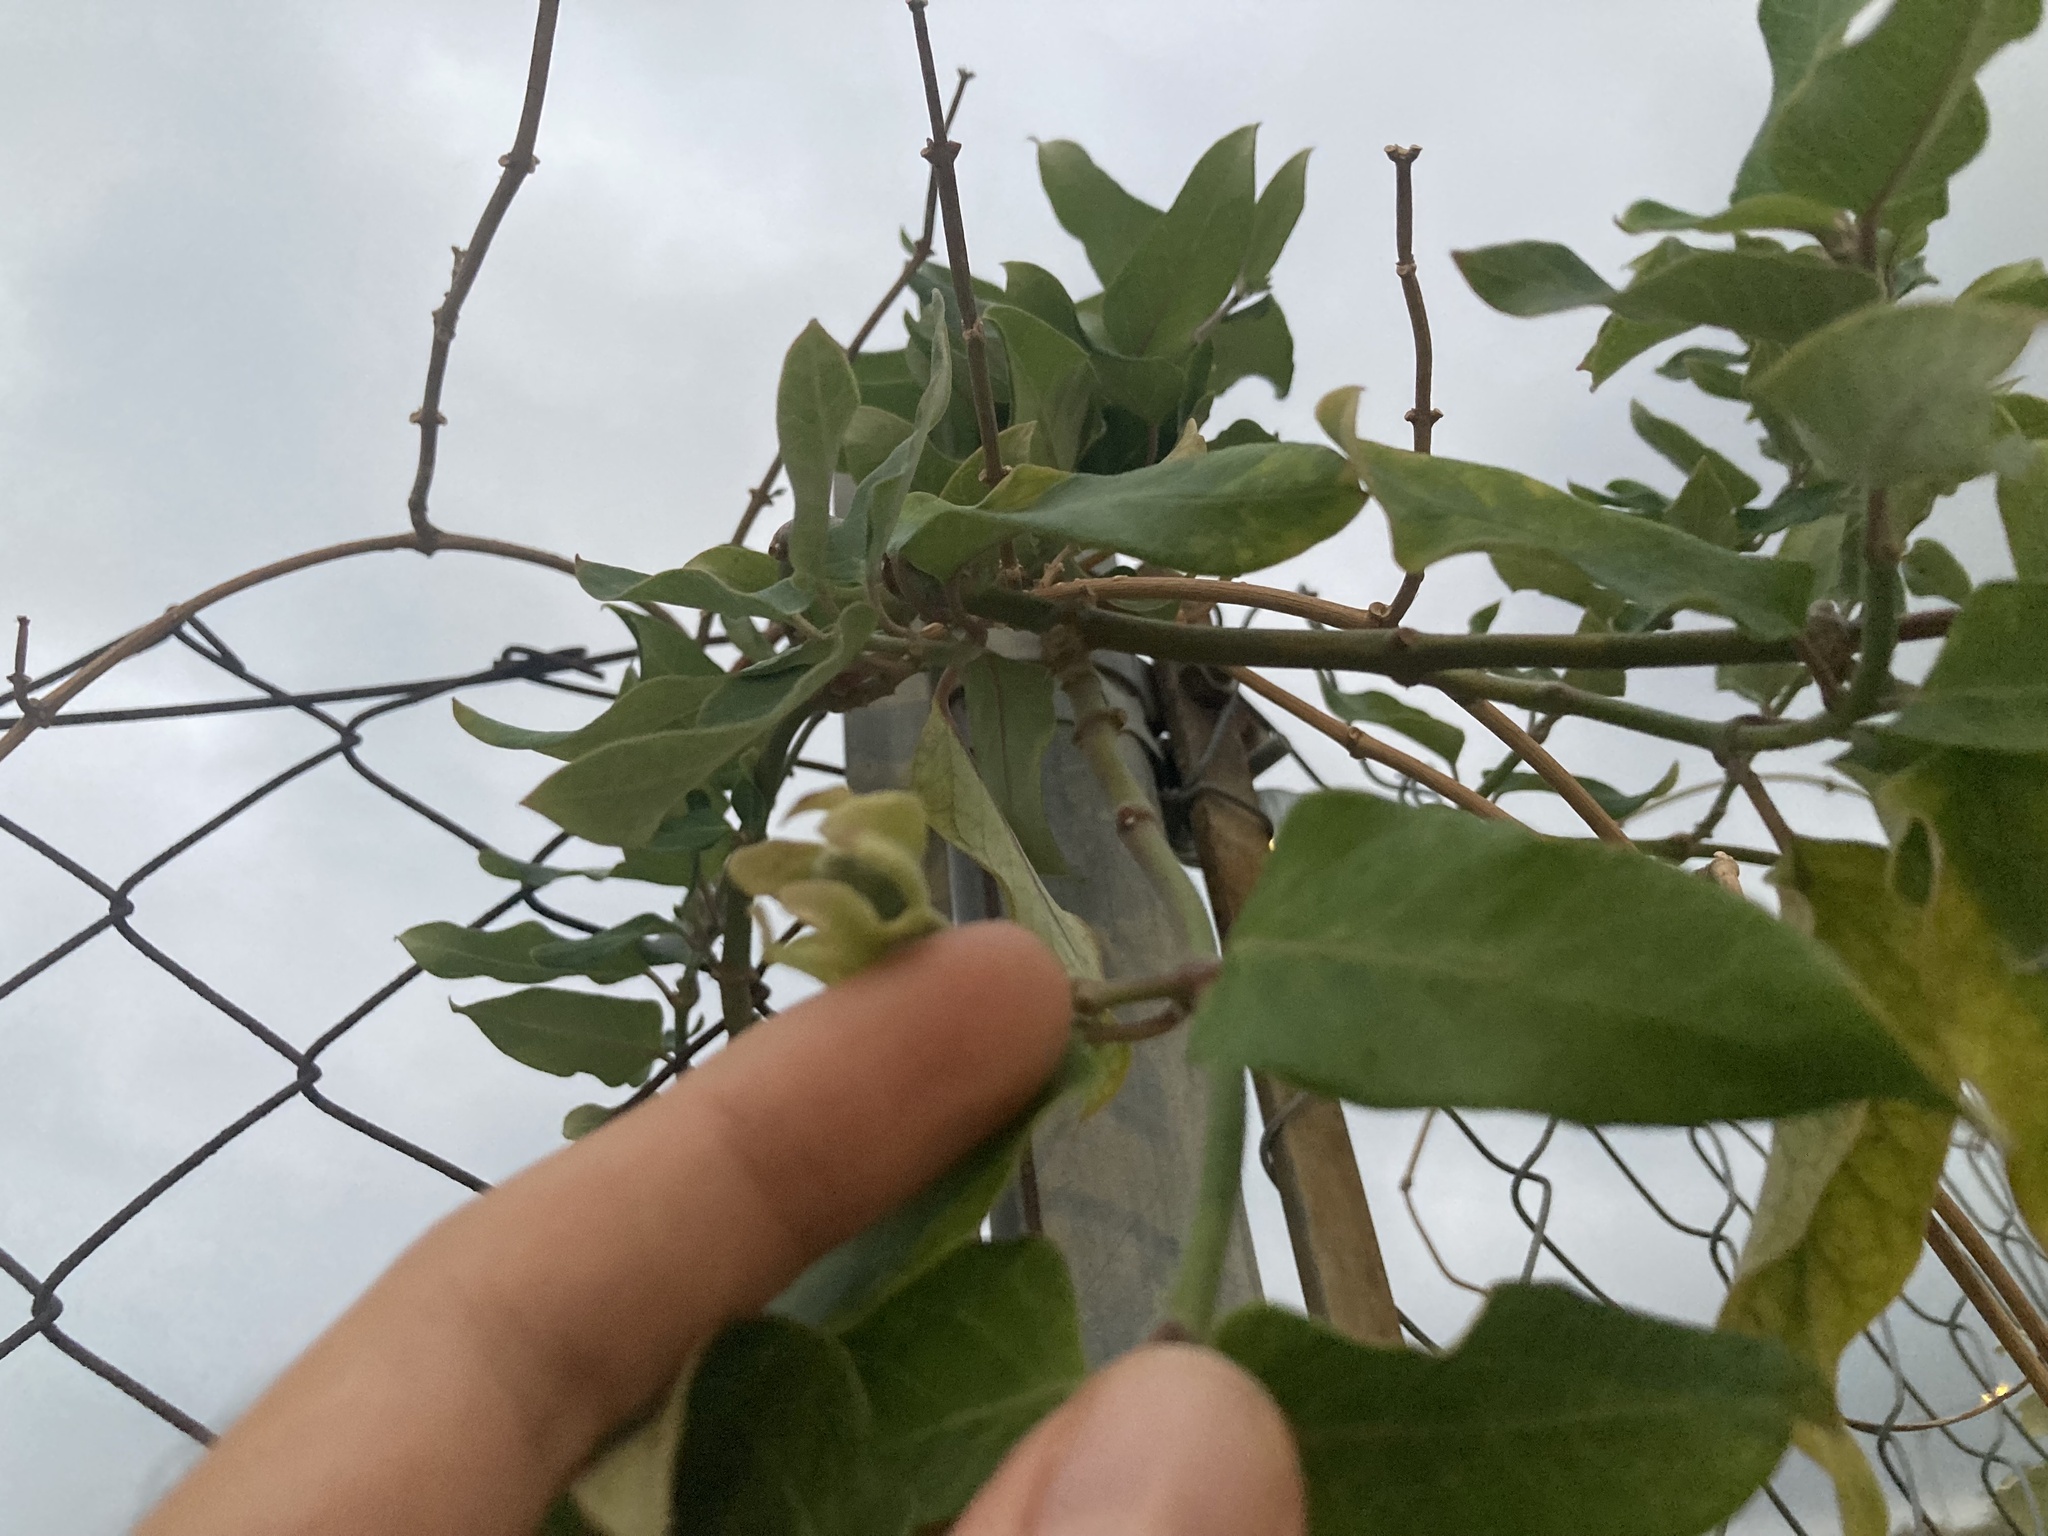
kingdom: Plantae
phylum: Tracheophyta
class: Magnoliopsida
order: Gentianales
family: Apocynaceae
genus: Araujia
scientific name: Araujia sericifera
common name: White bladderflower
